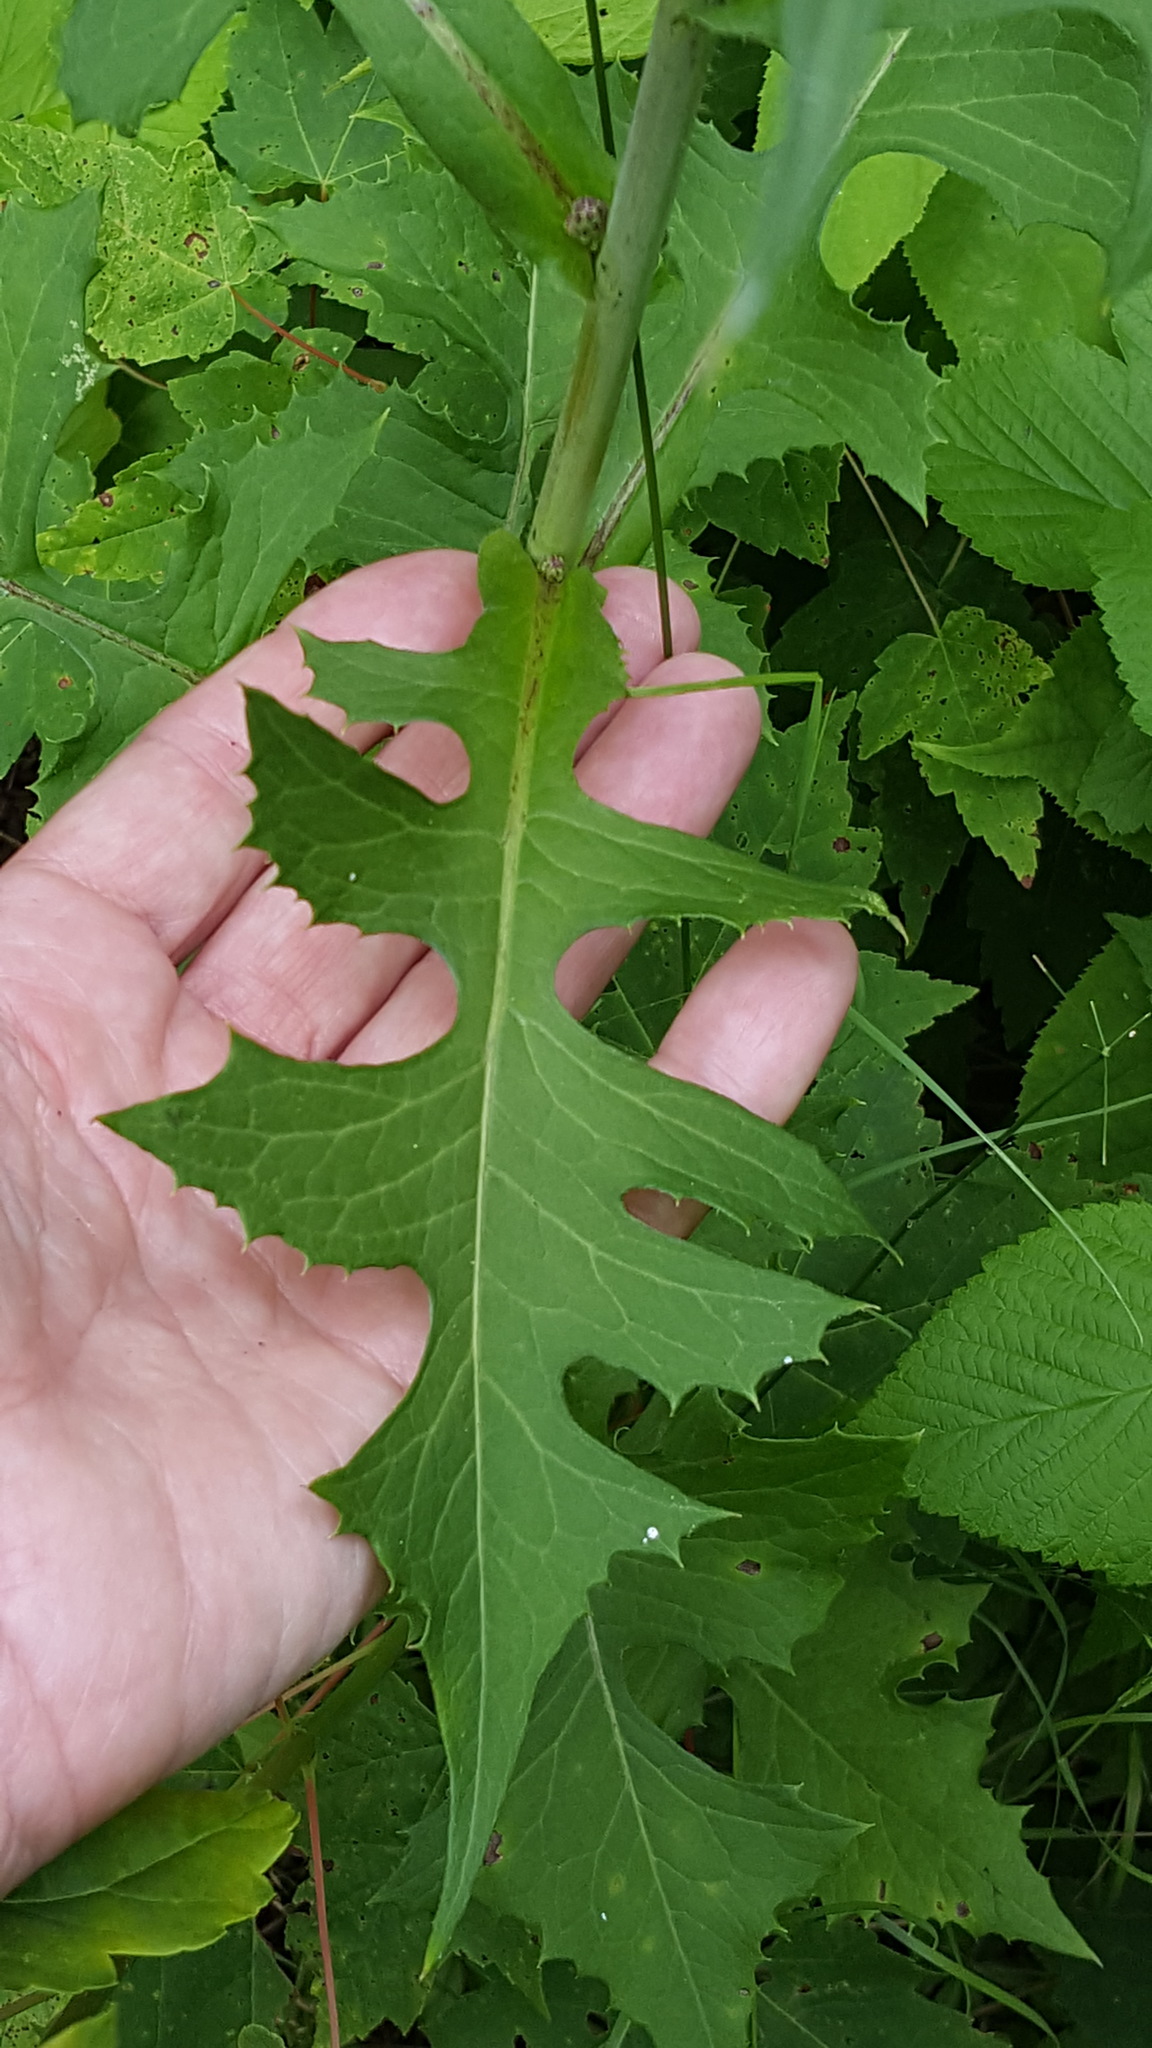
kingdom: Plantae
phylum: Tracheophyta
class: Magnoliopsida
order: Asterales
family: Asteraceae
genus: Lactuca
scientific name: Lactuca biennis
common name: Blue wood lettuce
